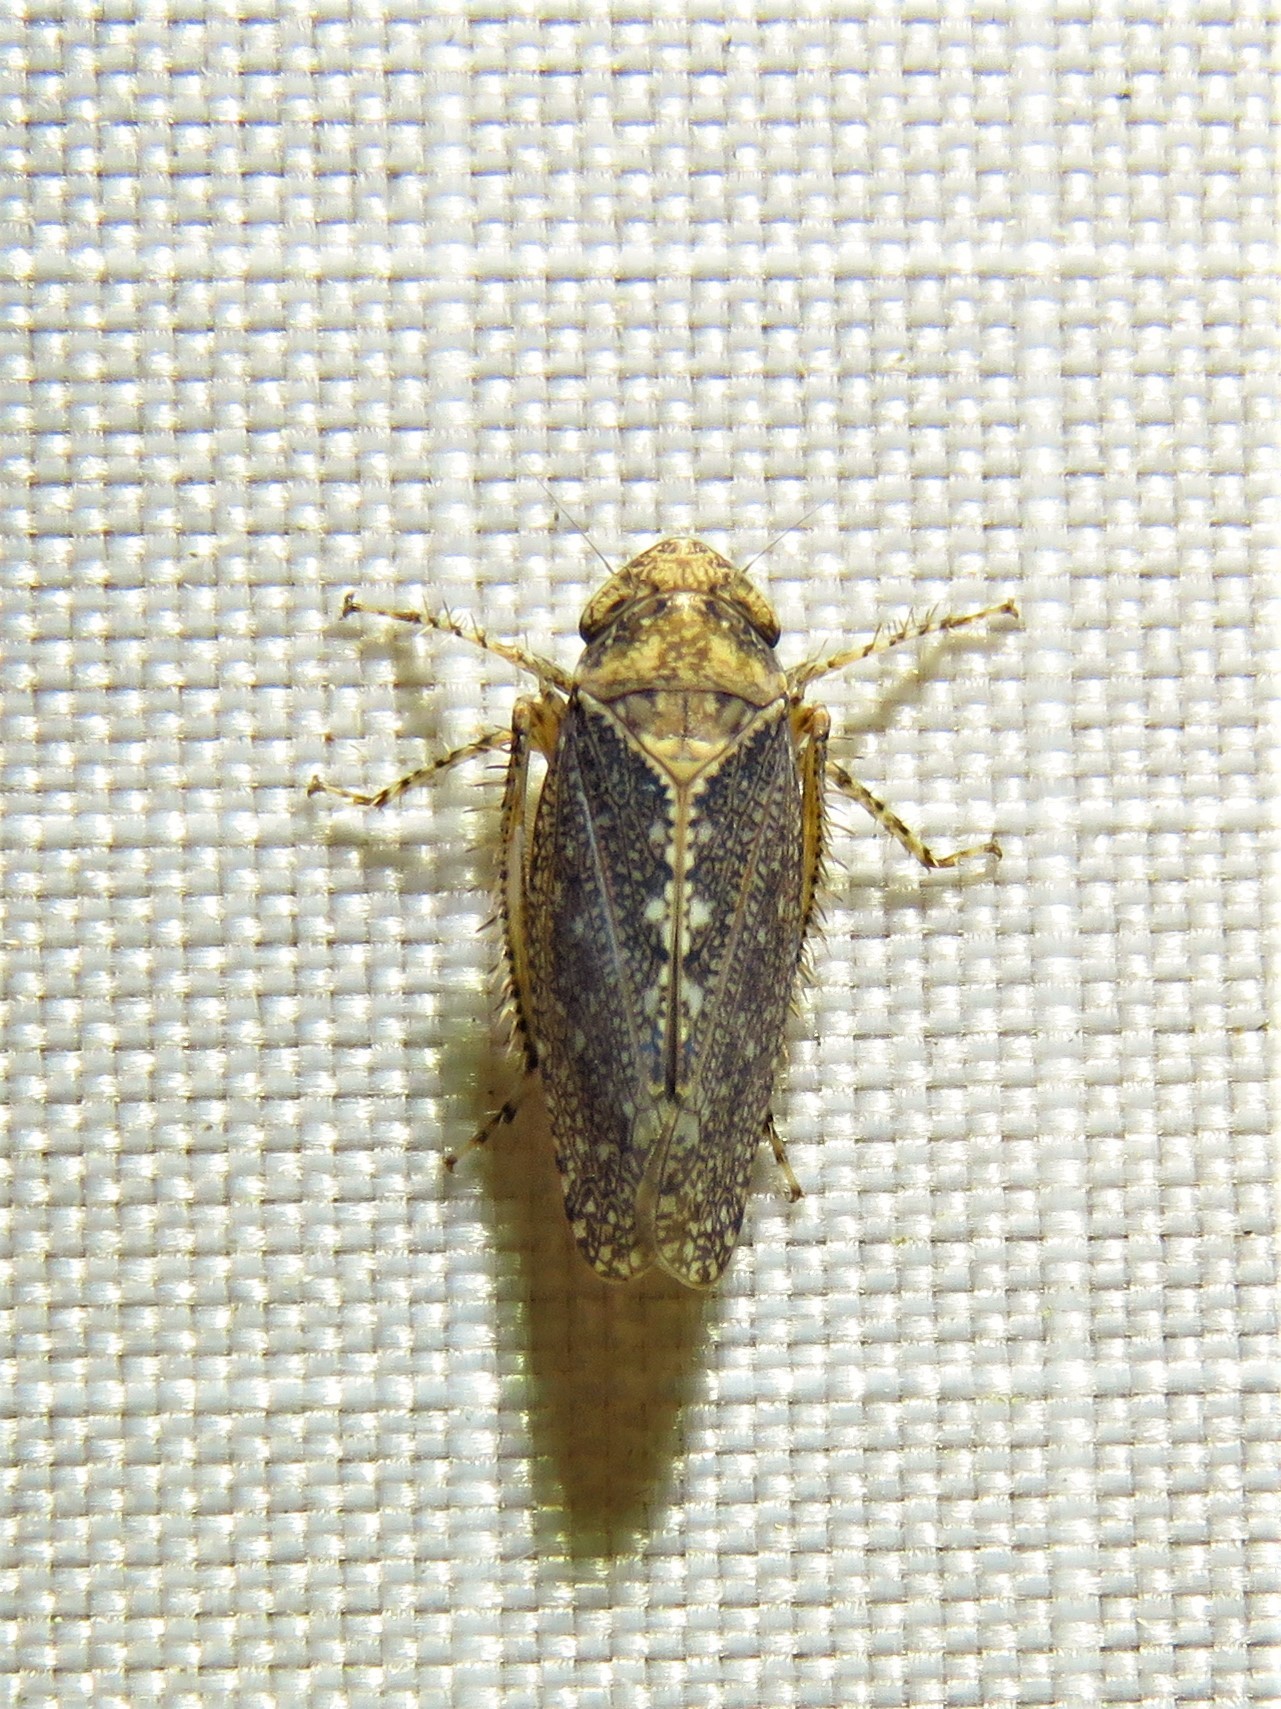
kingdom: Animalia
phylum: Arthropoda
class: Insecta
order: Hemiptera
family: Cicadellidae
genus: Excultanus
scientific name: Excultanus excultus
